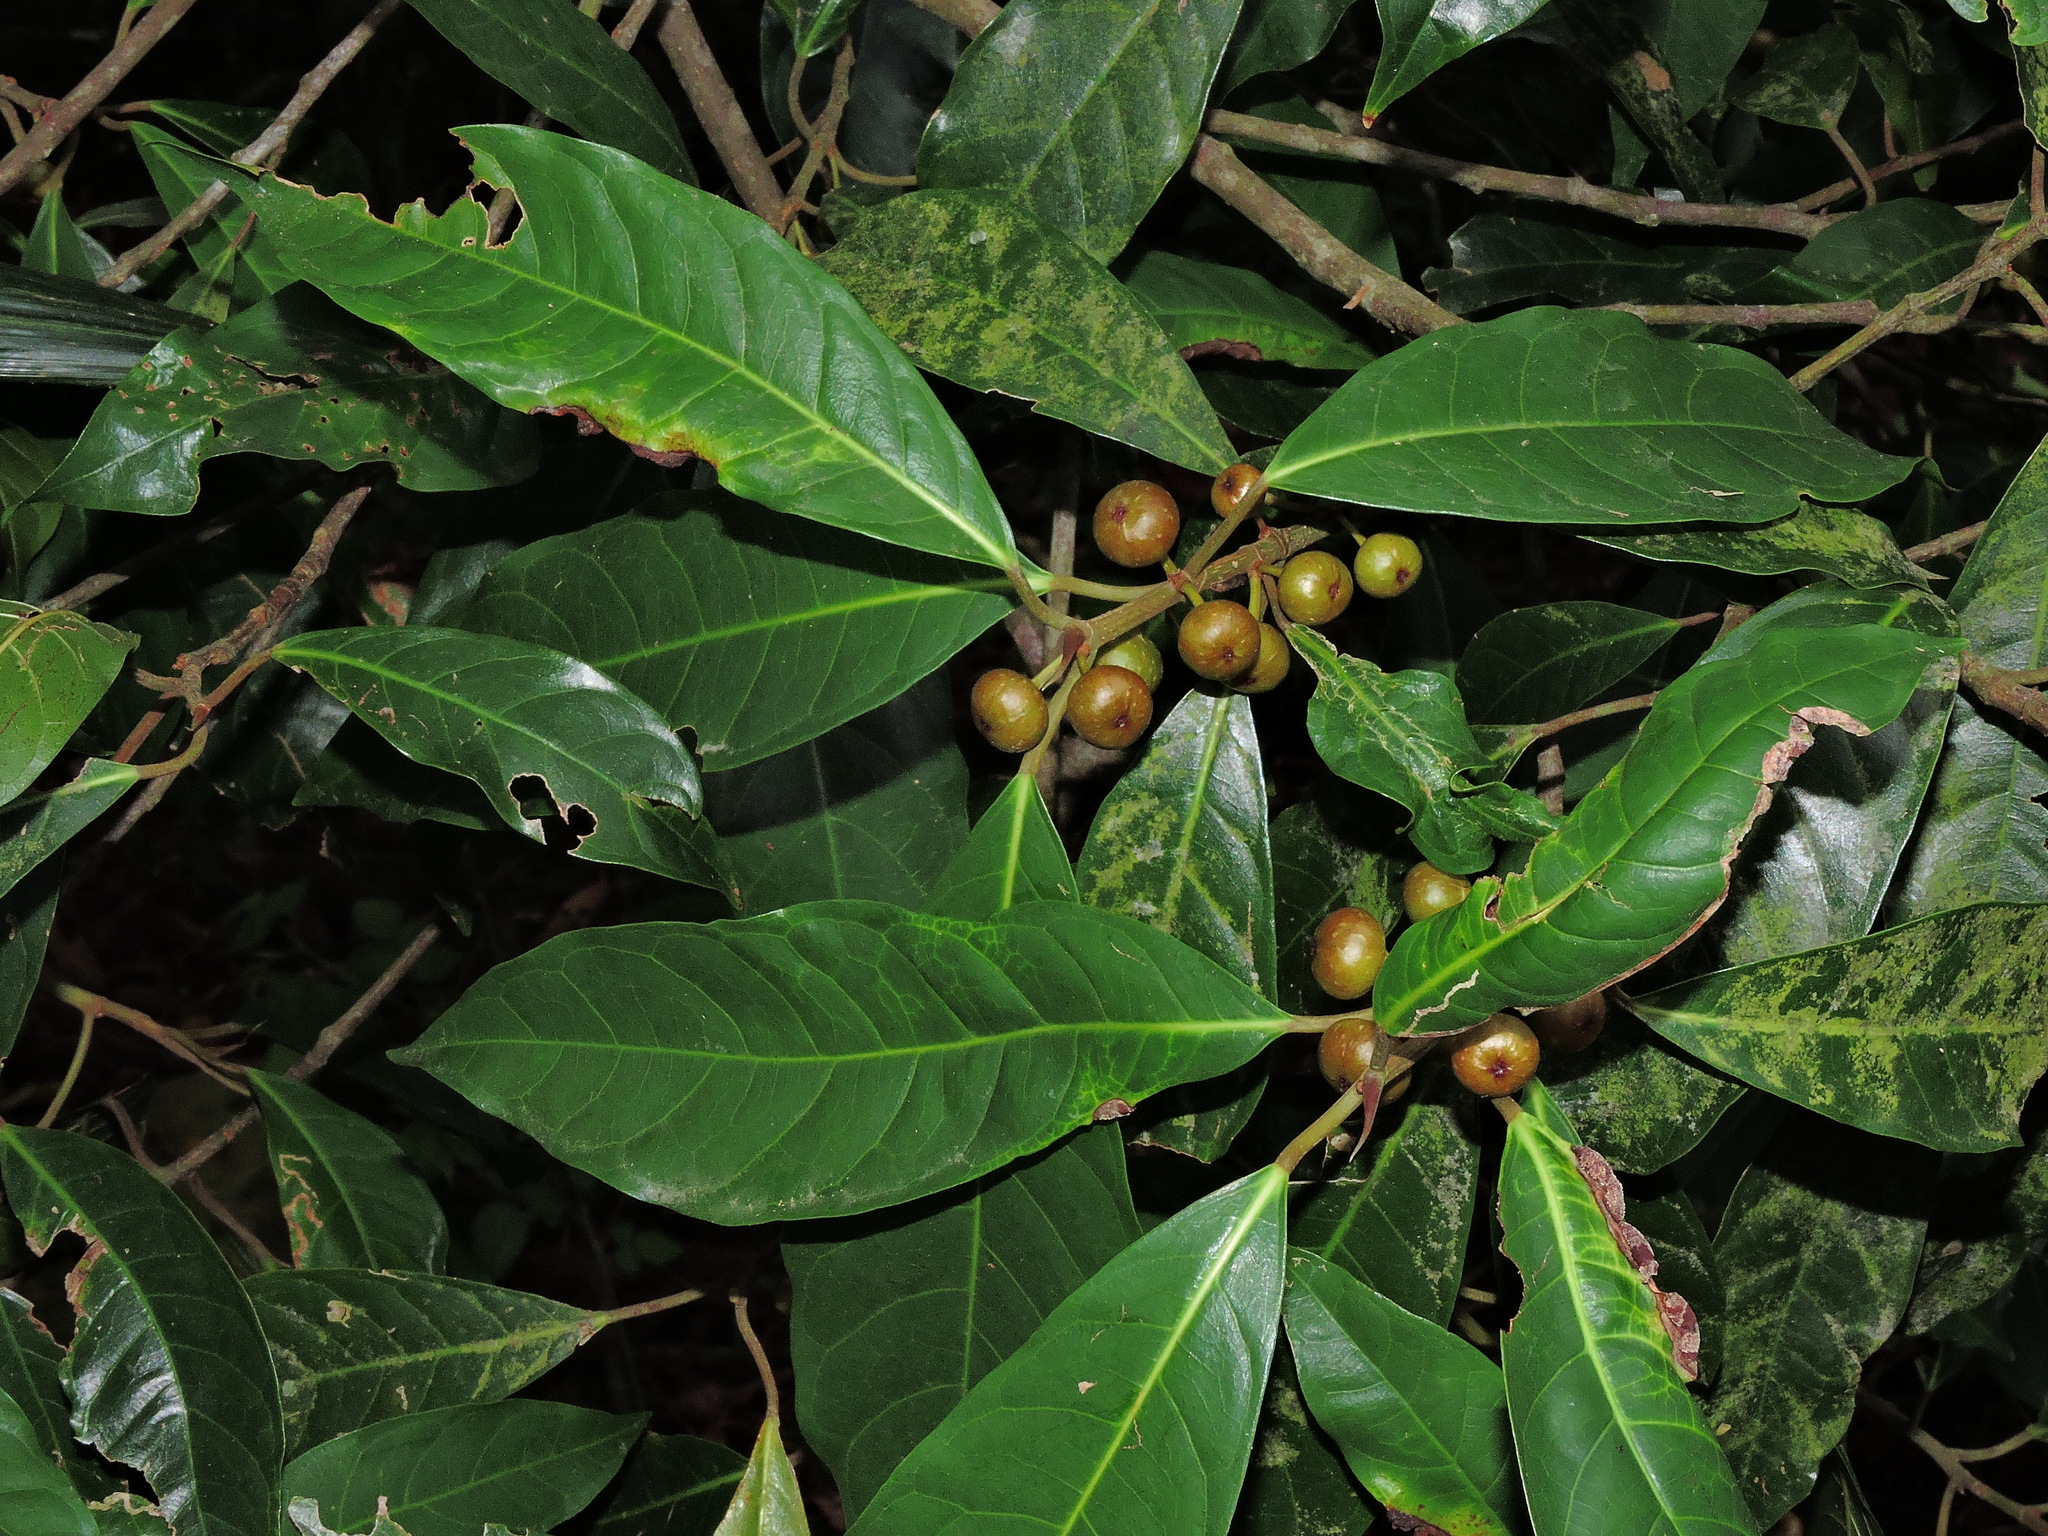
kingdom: Plantae
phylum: Tracheophyta
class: Magnoliopsida
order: Rosales
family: Moraceae
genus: Ficus
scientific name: Ficus nervosa
